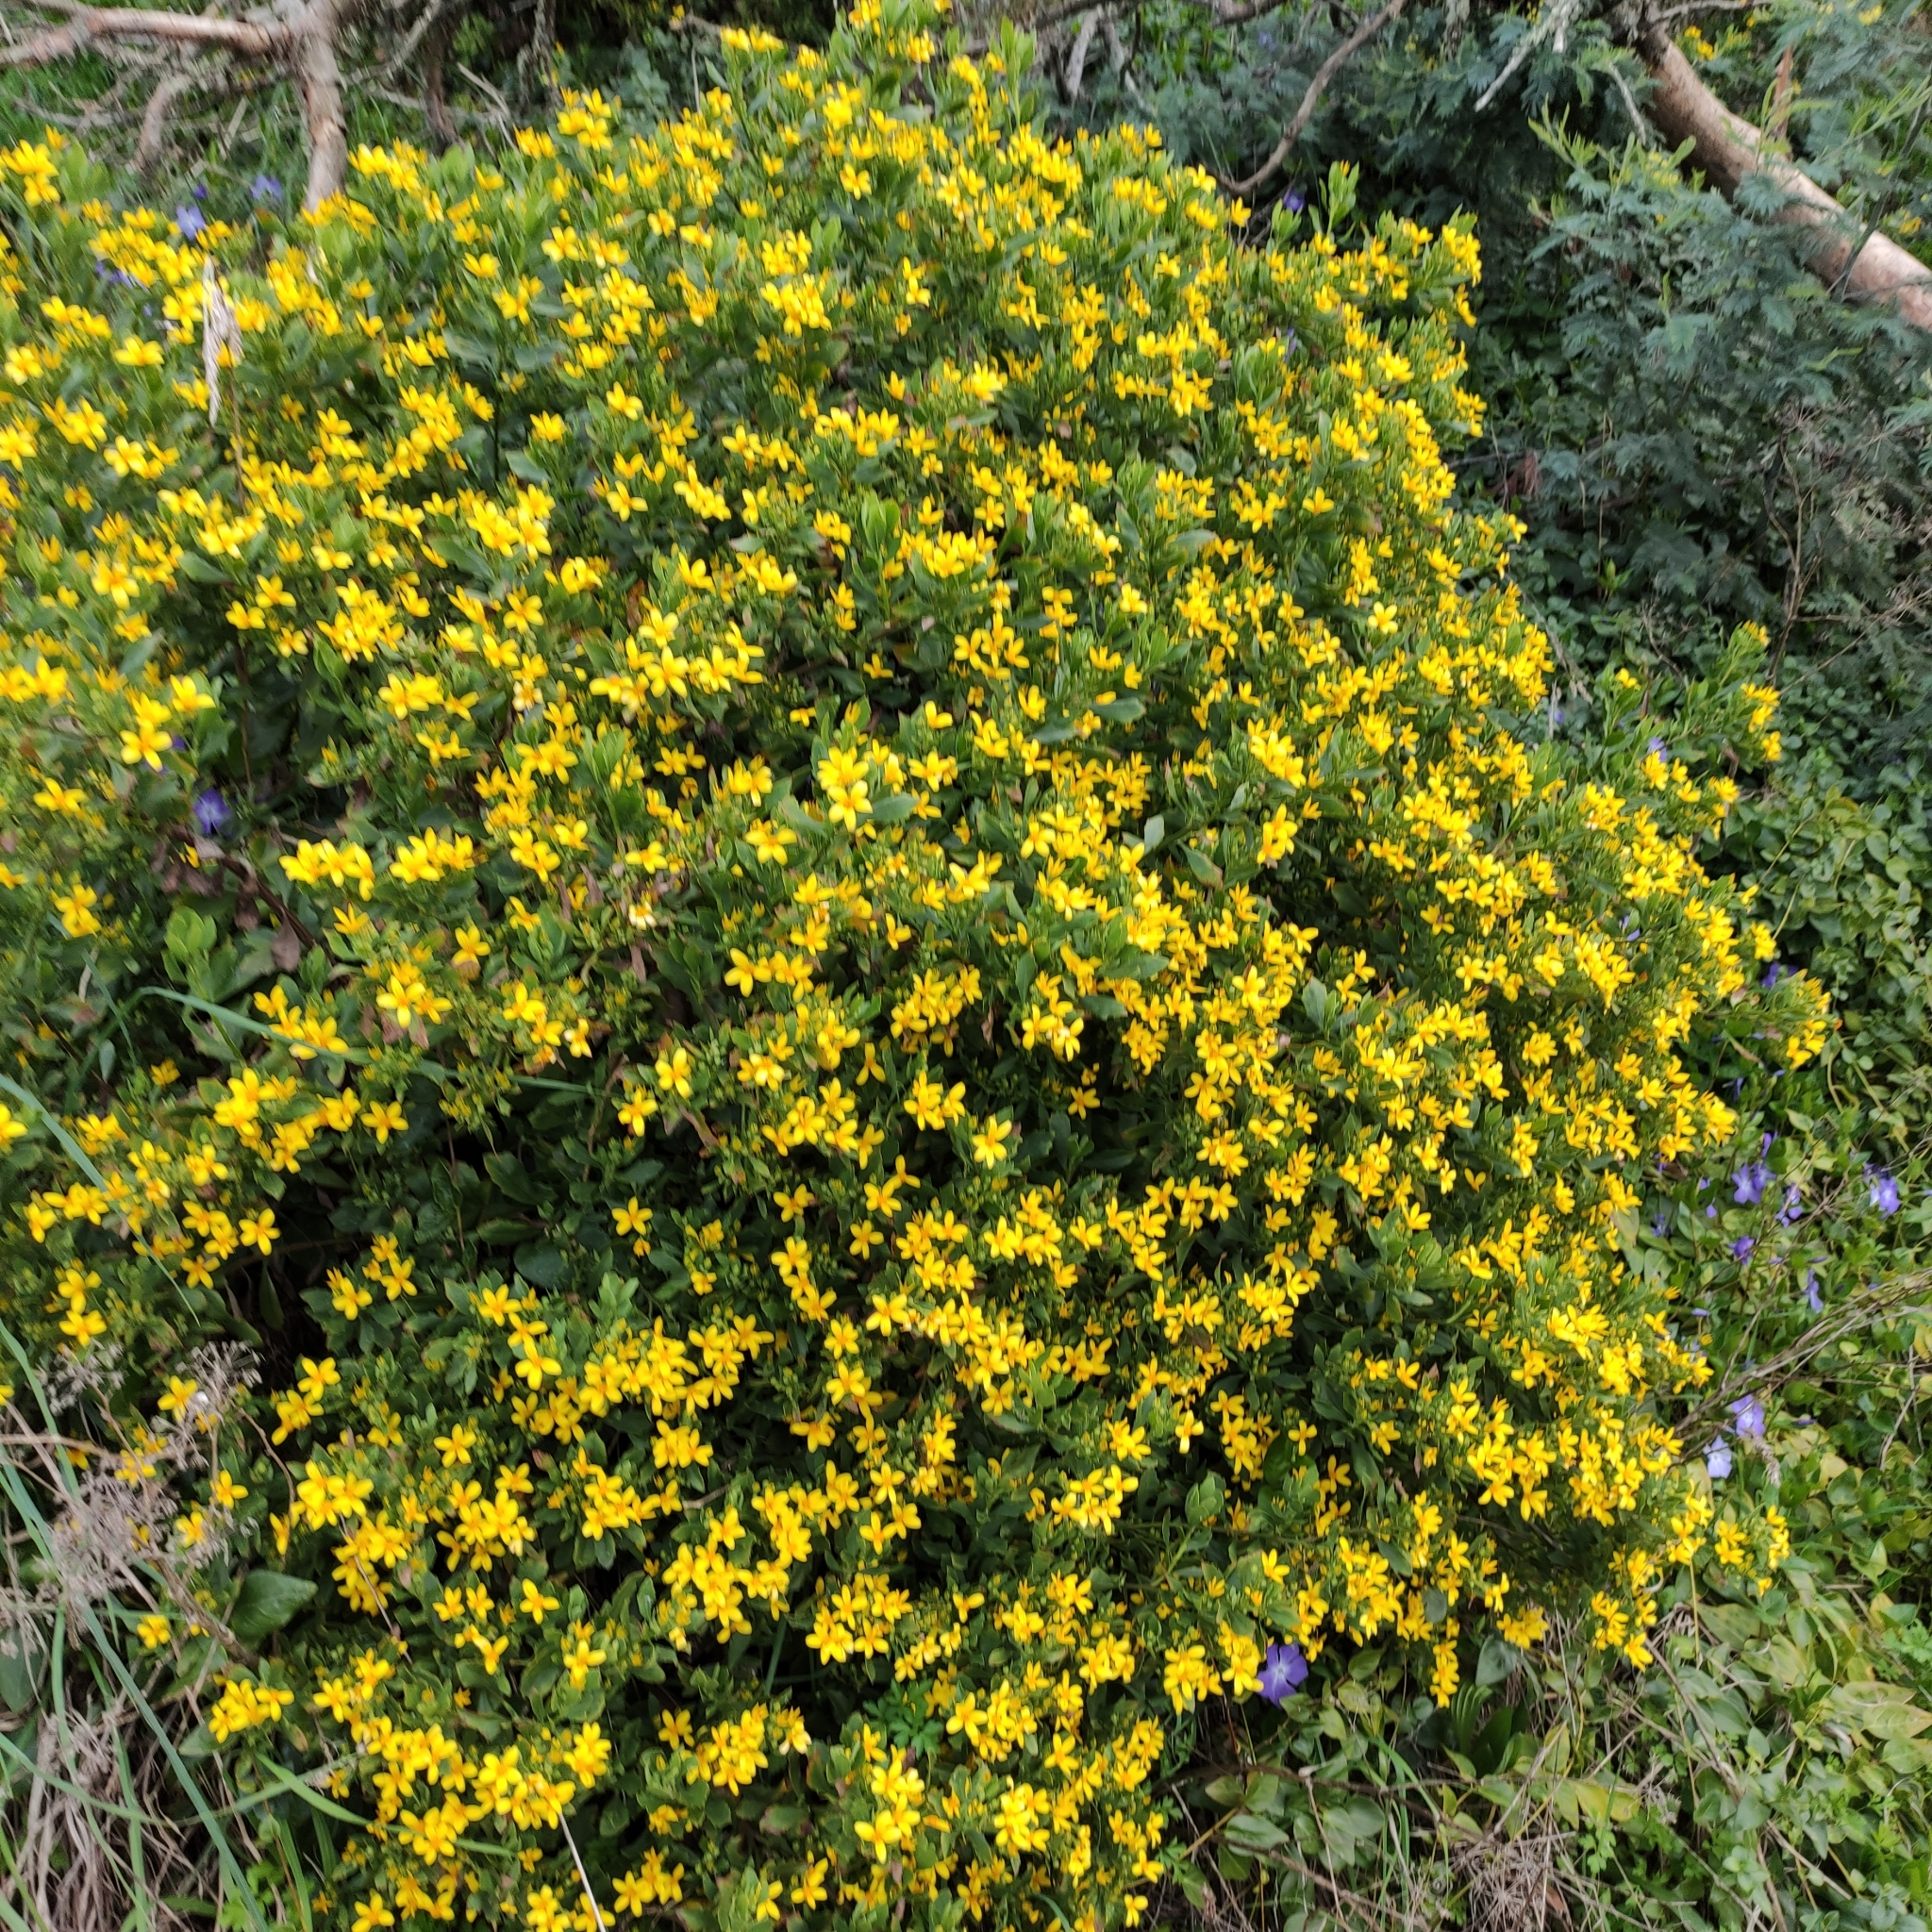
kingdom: Plantae
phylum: Tracheophyta
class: Magnoliopsida
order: Asterales
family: Asteraceae
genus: Osteospermum
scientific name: Osteospermum moniliferum
